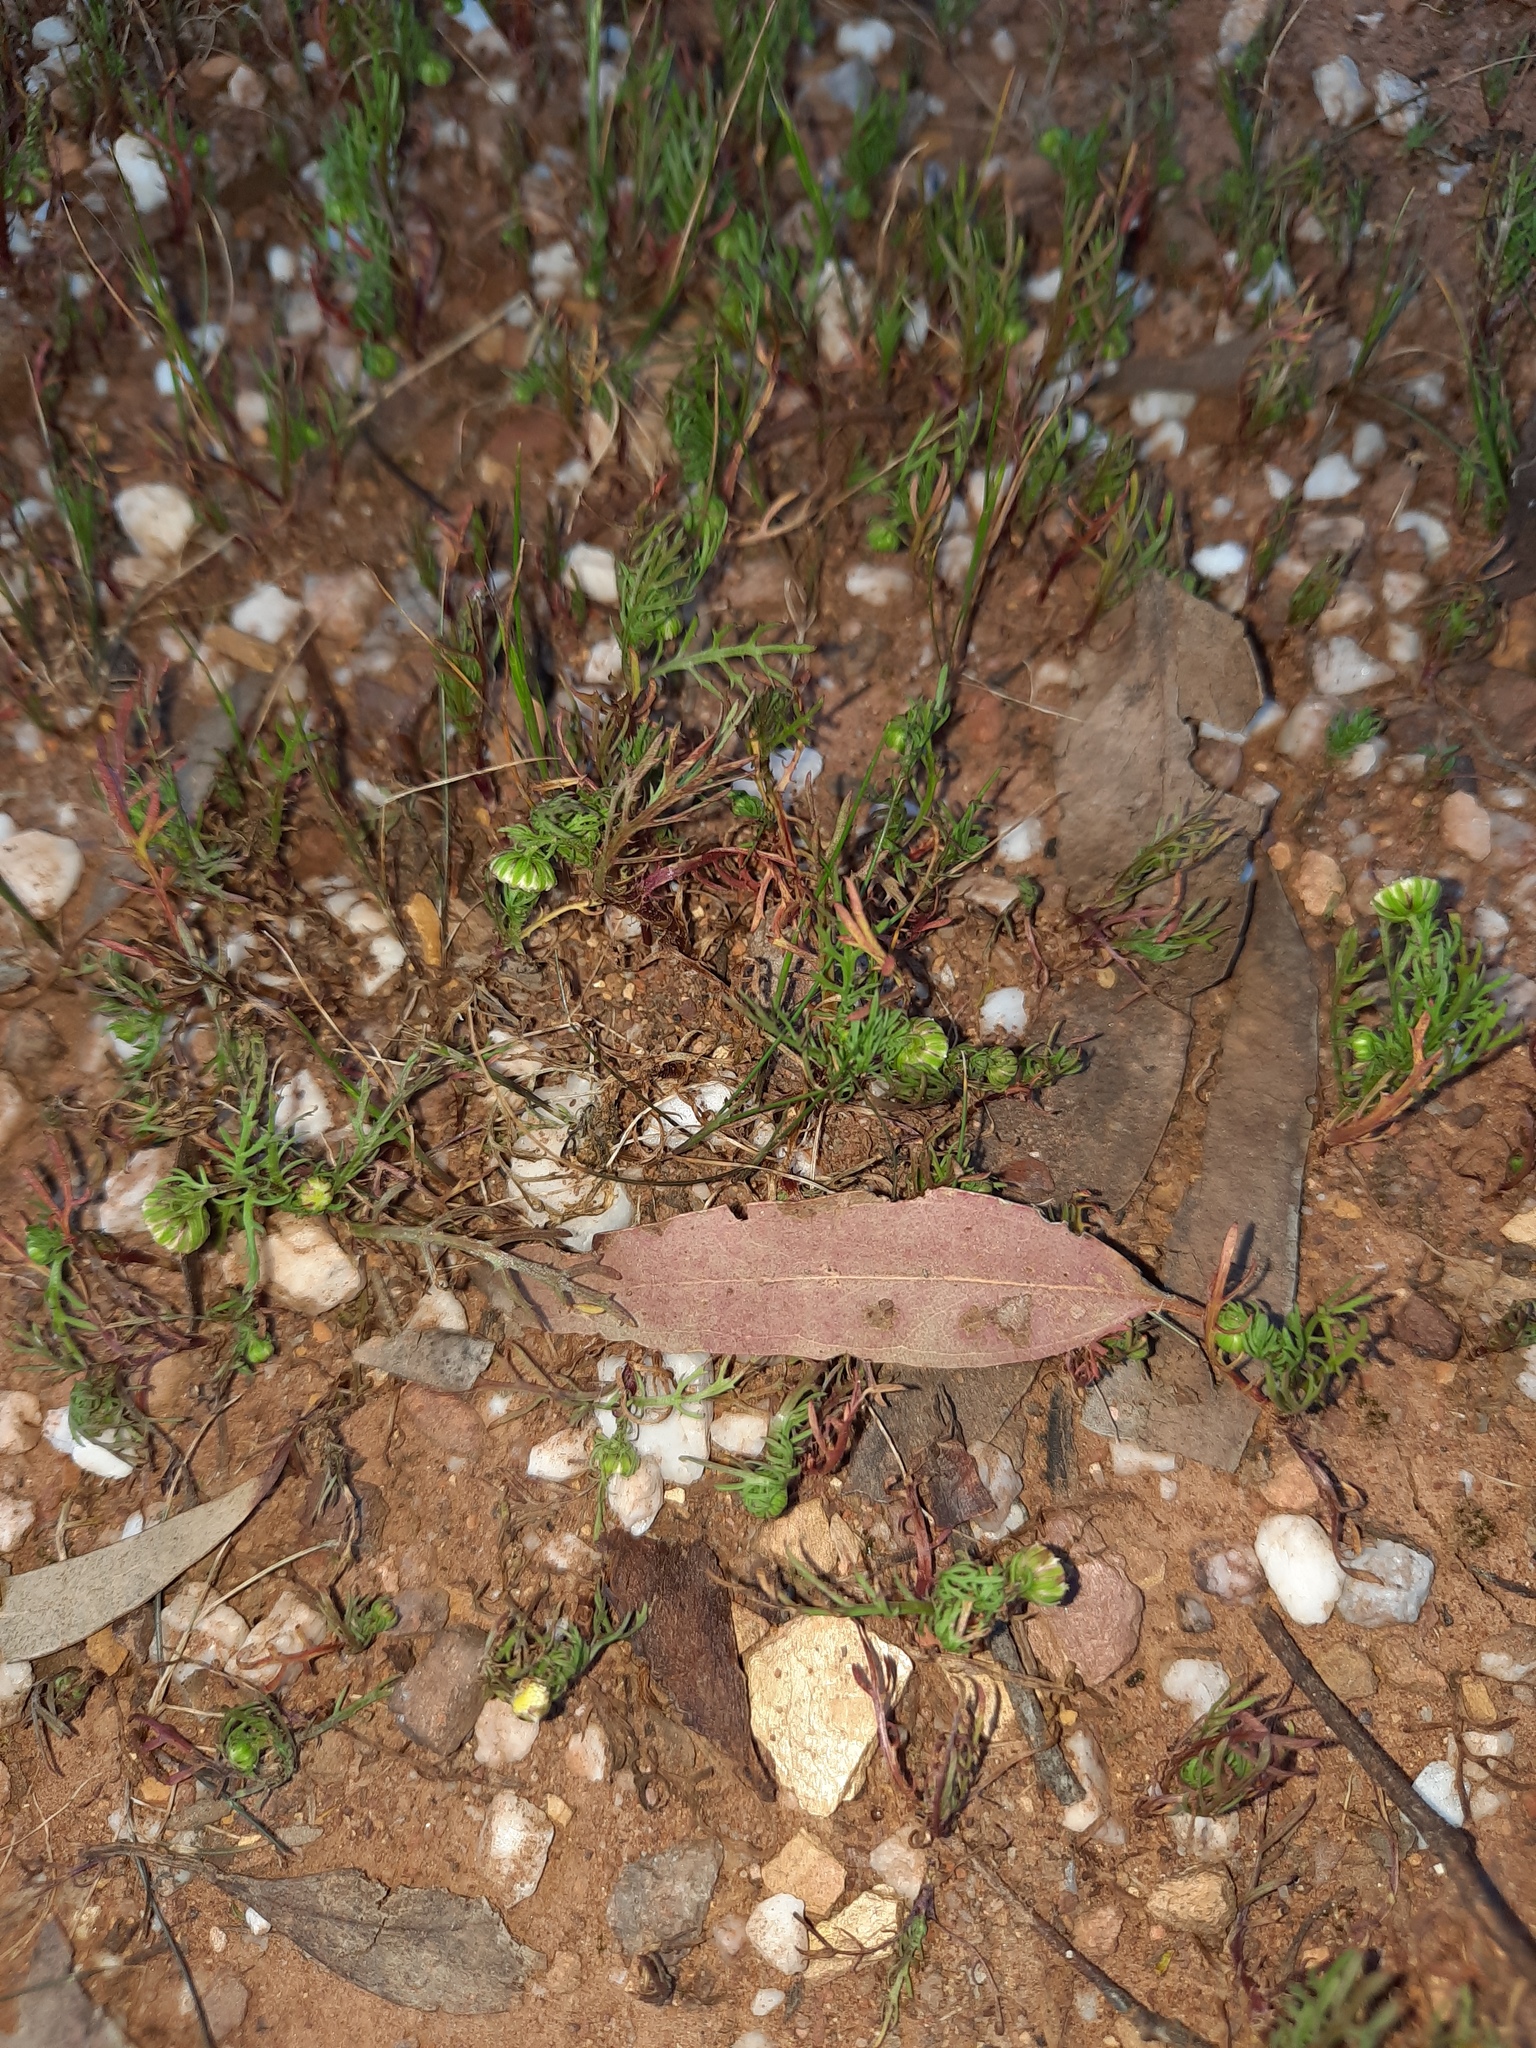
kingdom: Plantae
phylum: Tracheophyta
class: Magnoliopsida
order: Asterales
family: Asteraceae
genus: Cotula
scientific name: Cotula bipinnata
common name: Ferny buttonweed
